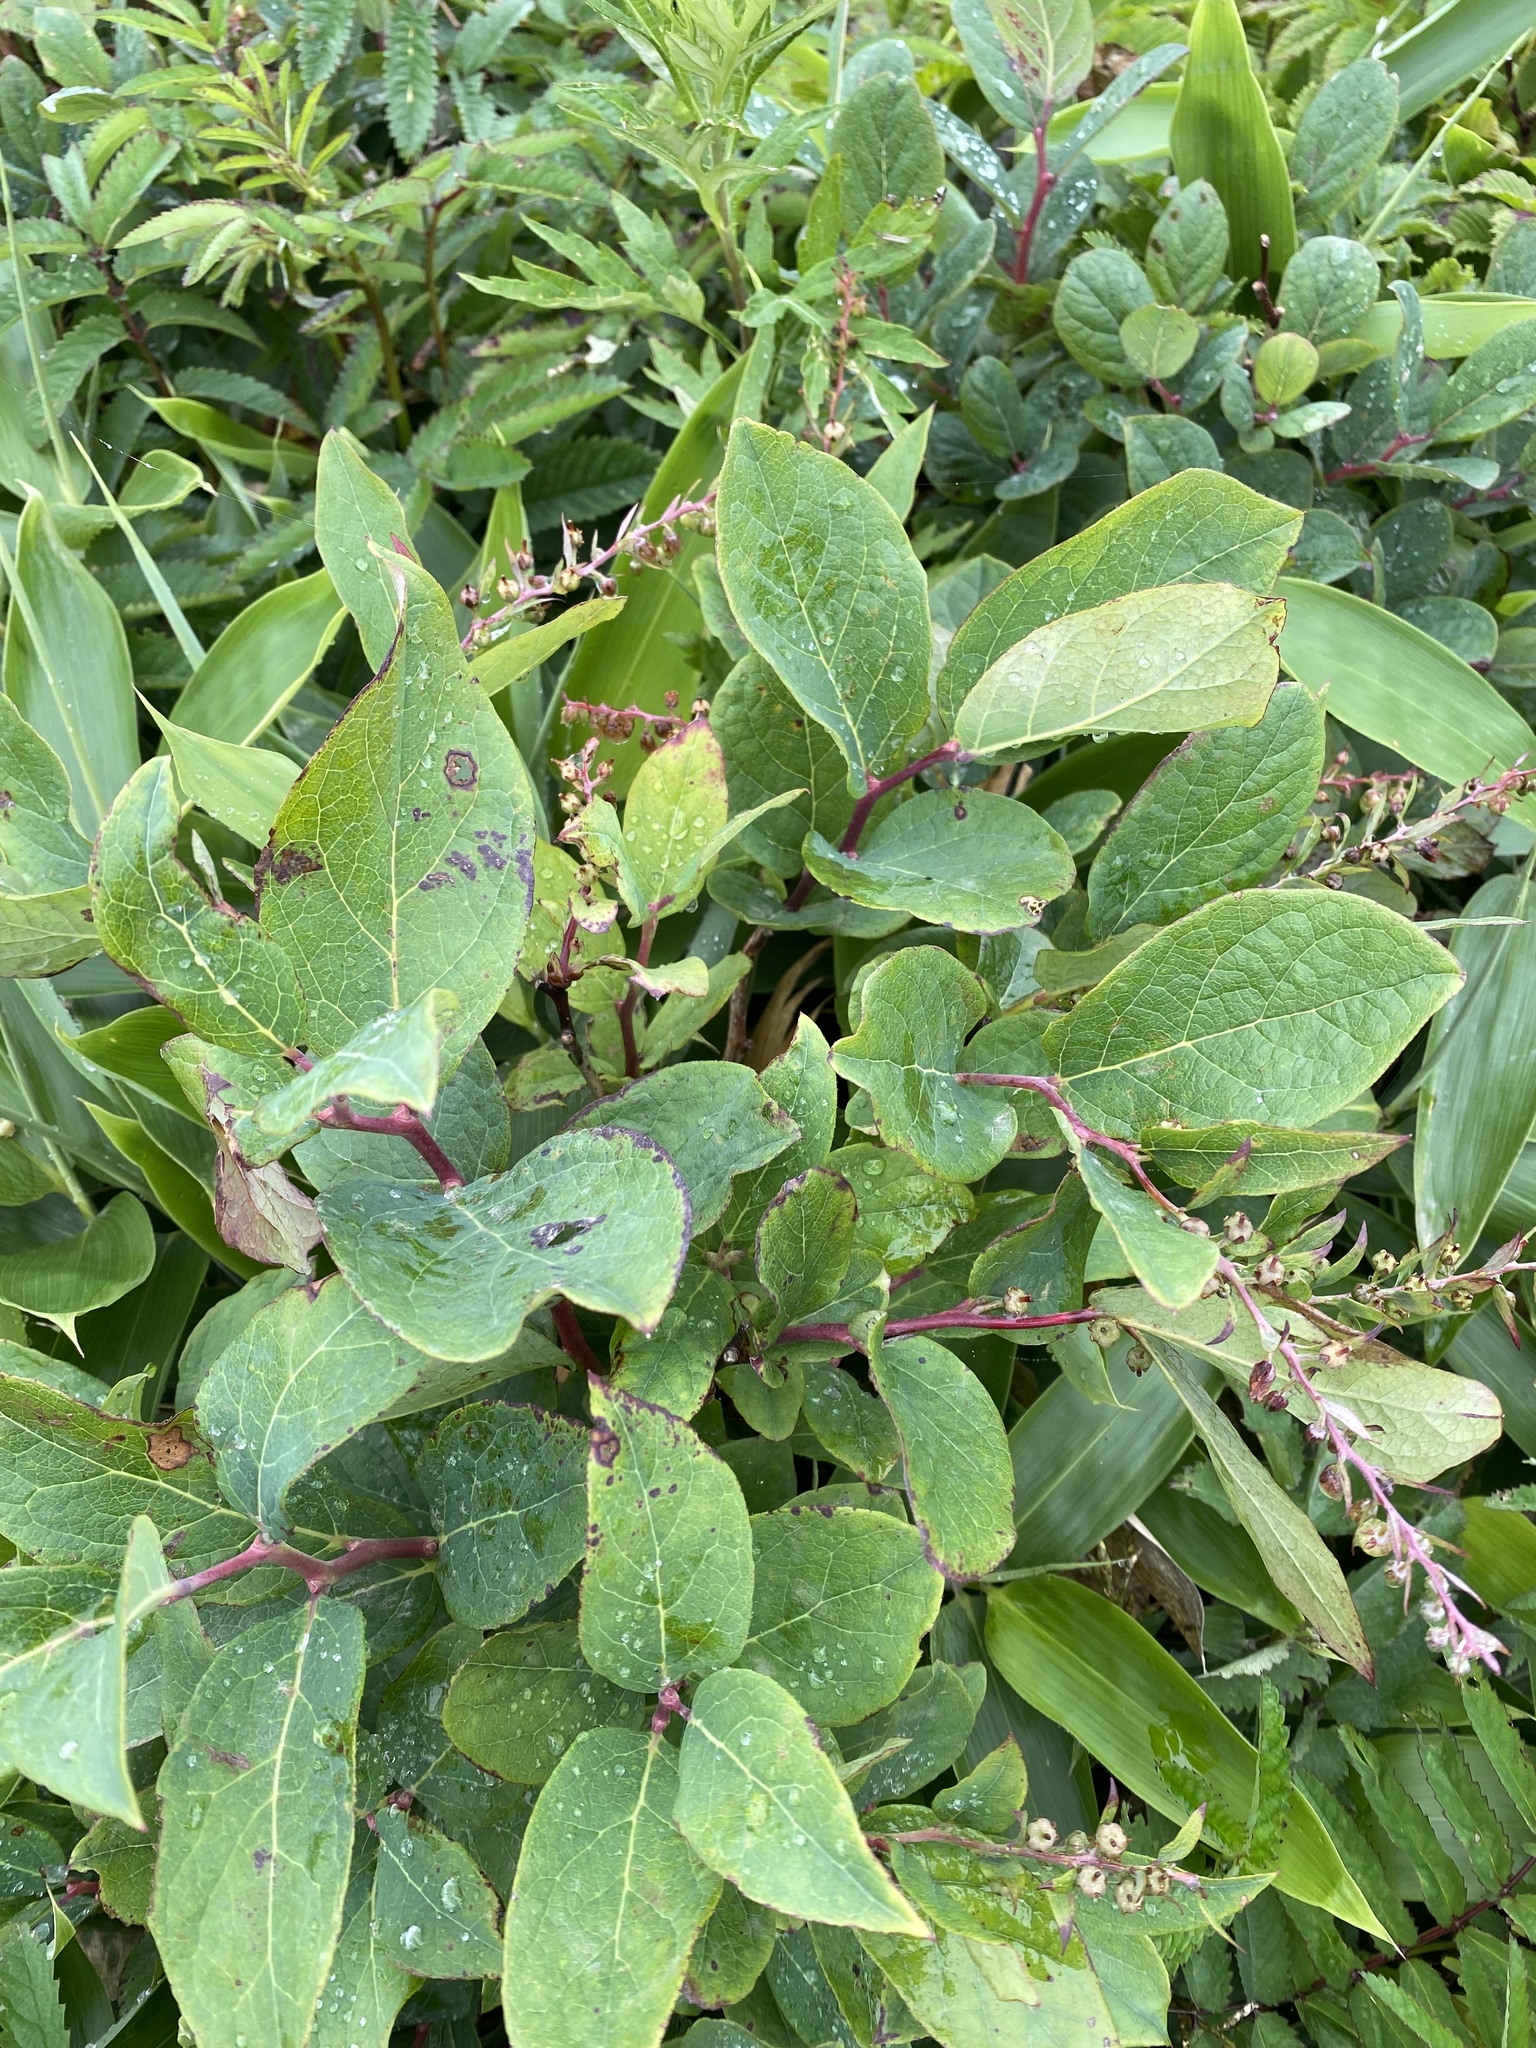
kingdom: Plantae
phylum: Tracheophyta
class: Magnoliopsida
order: Ericales
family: Ericaceae
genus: Leucothoe
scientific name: Leucothoe grayana
